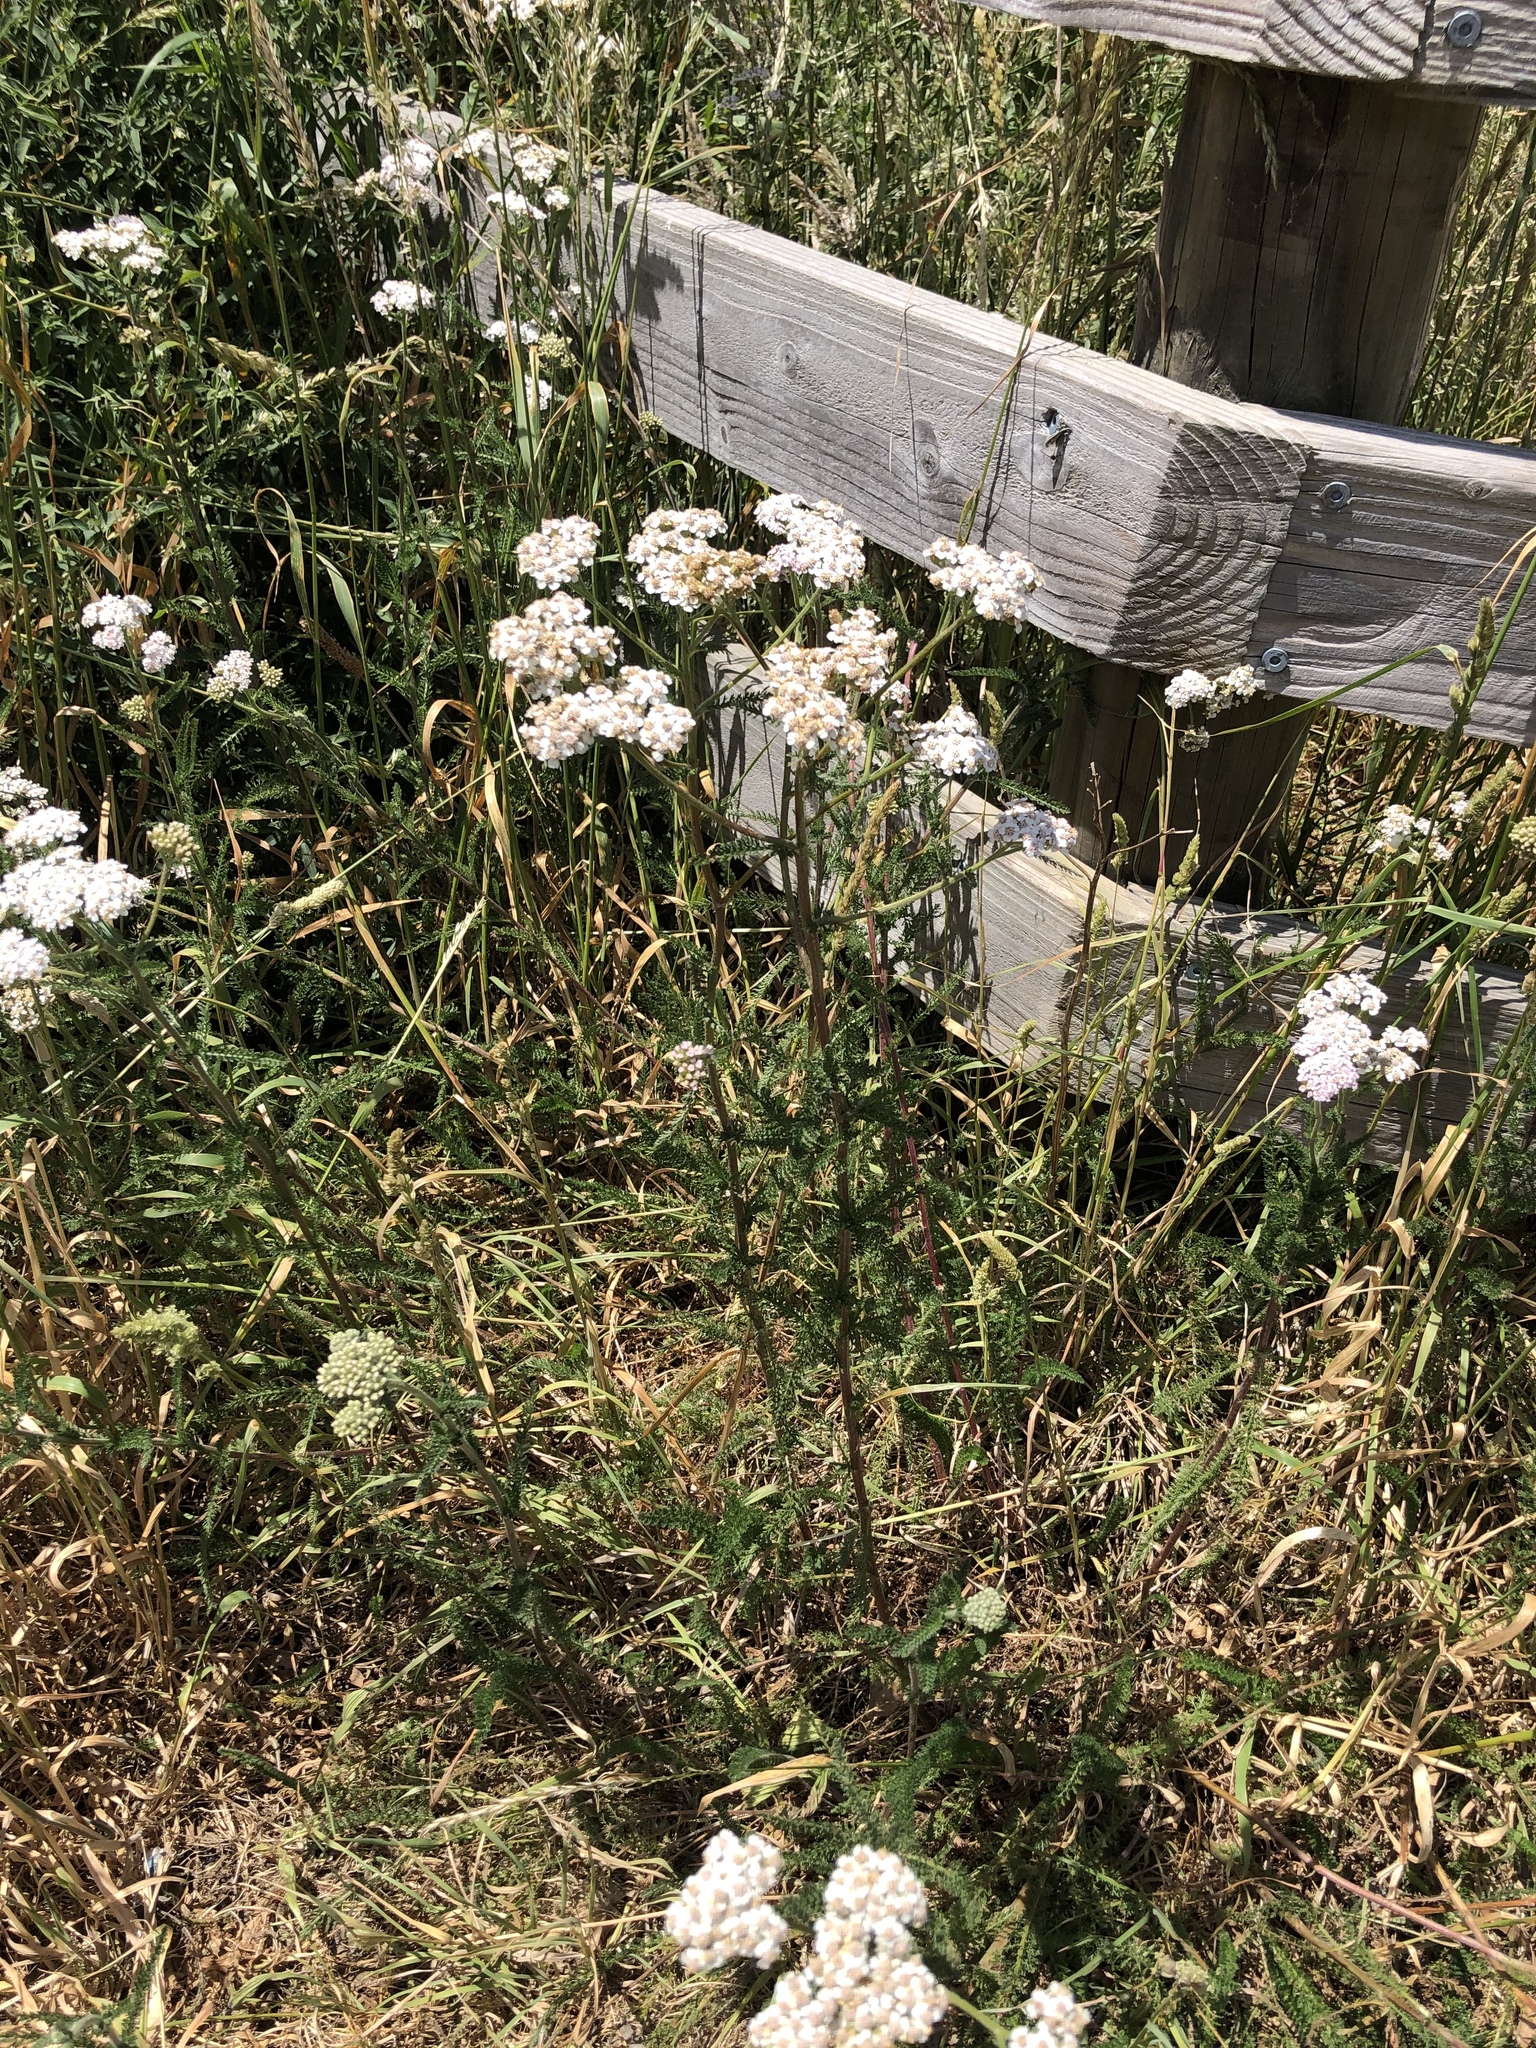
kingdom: Plantae
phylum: Tracheophyta
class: Magnoliopsida
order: Asterales
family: Asteraceae
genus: Achillea
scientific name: Achillea millefolium
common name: Yarrow
